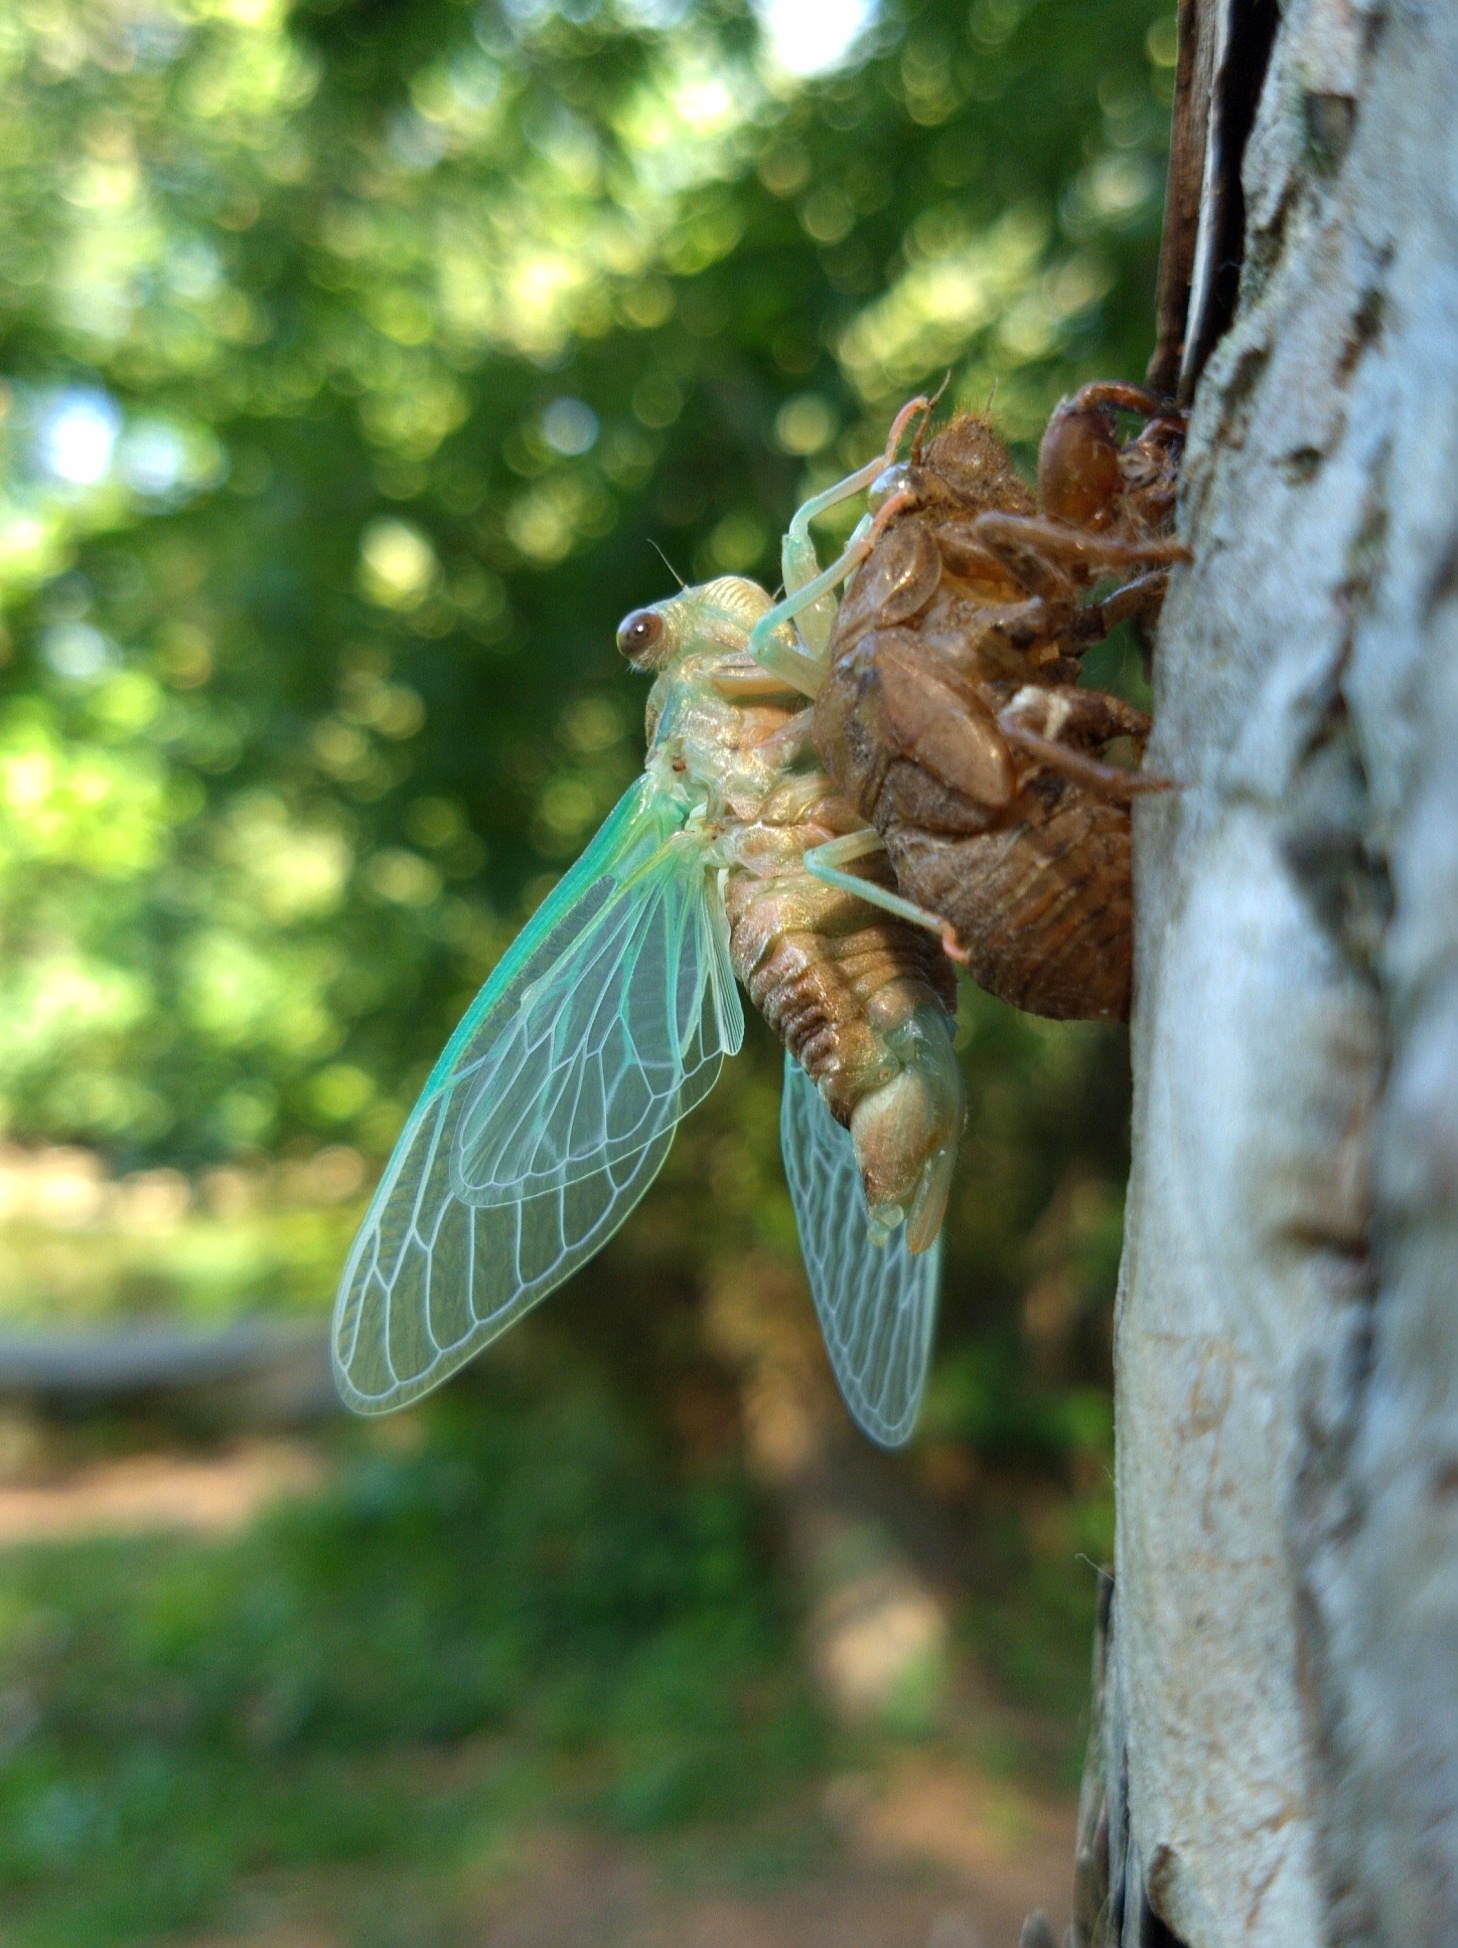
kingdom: Animalia
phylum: Arthropoda
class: Insecta
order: Hemiptera
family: Cicadidae
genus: Neotibicen
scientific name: Neotibicen canicularis
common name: God-day cicada
